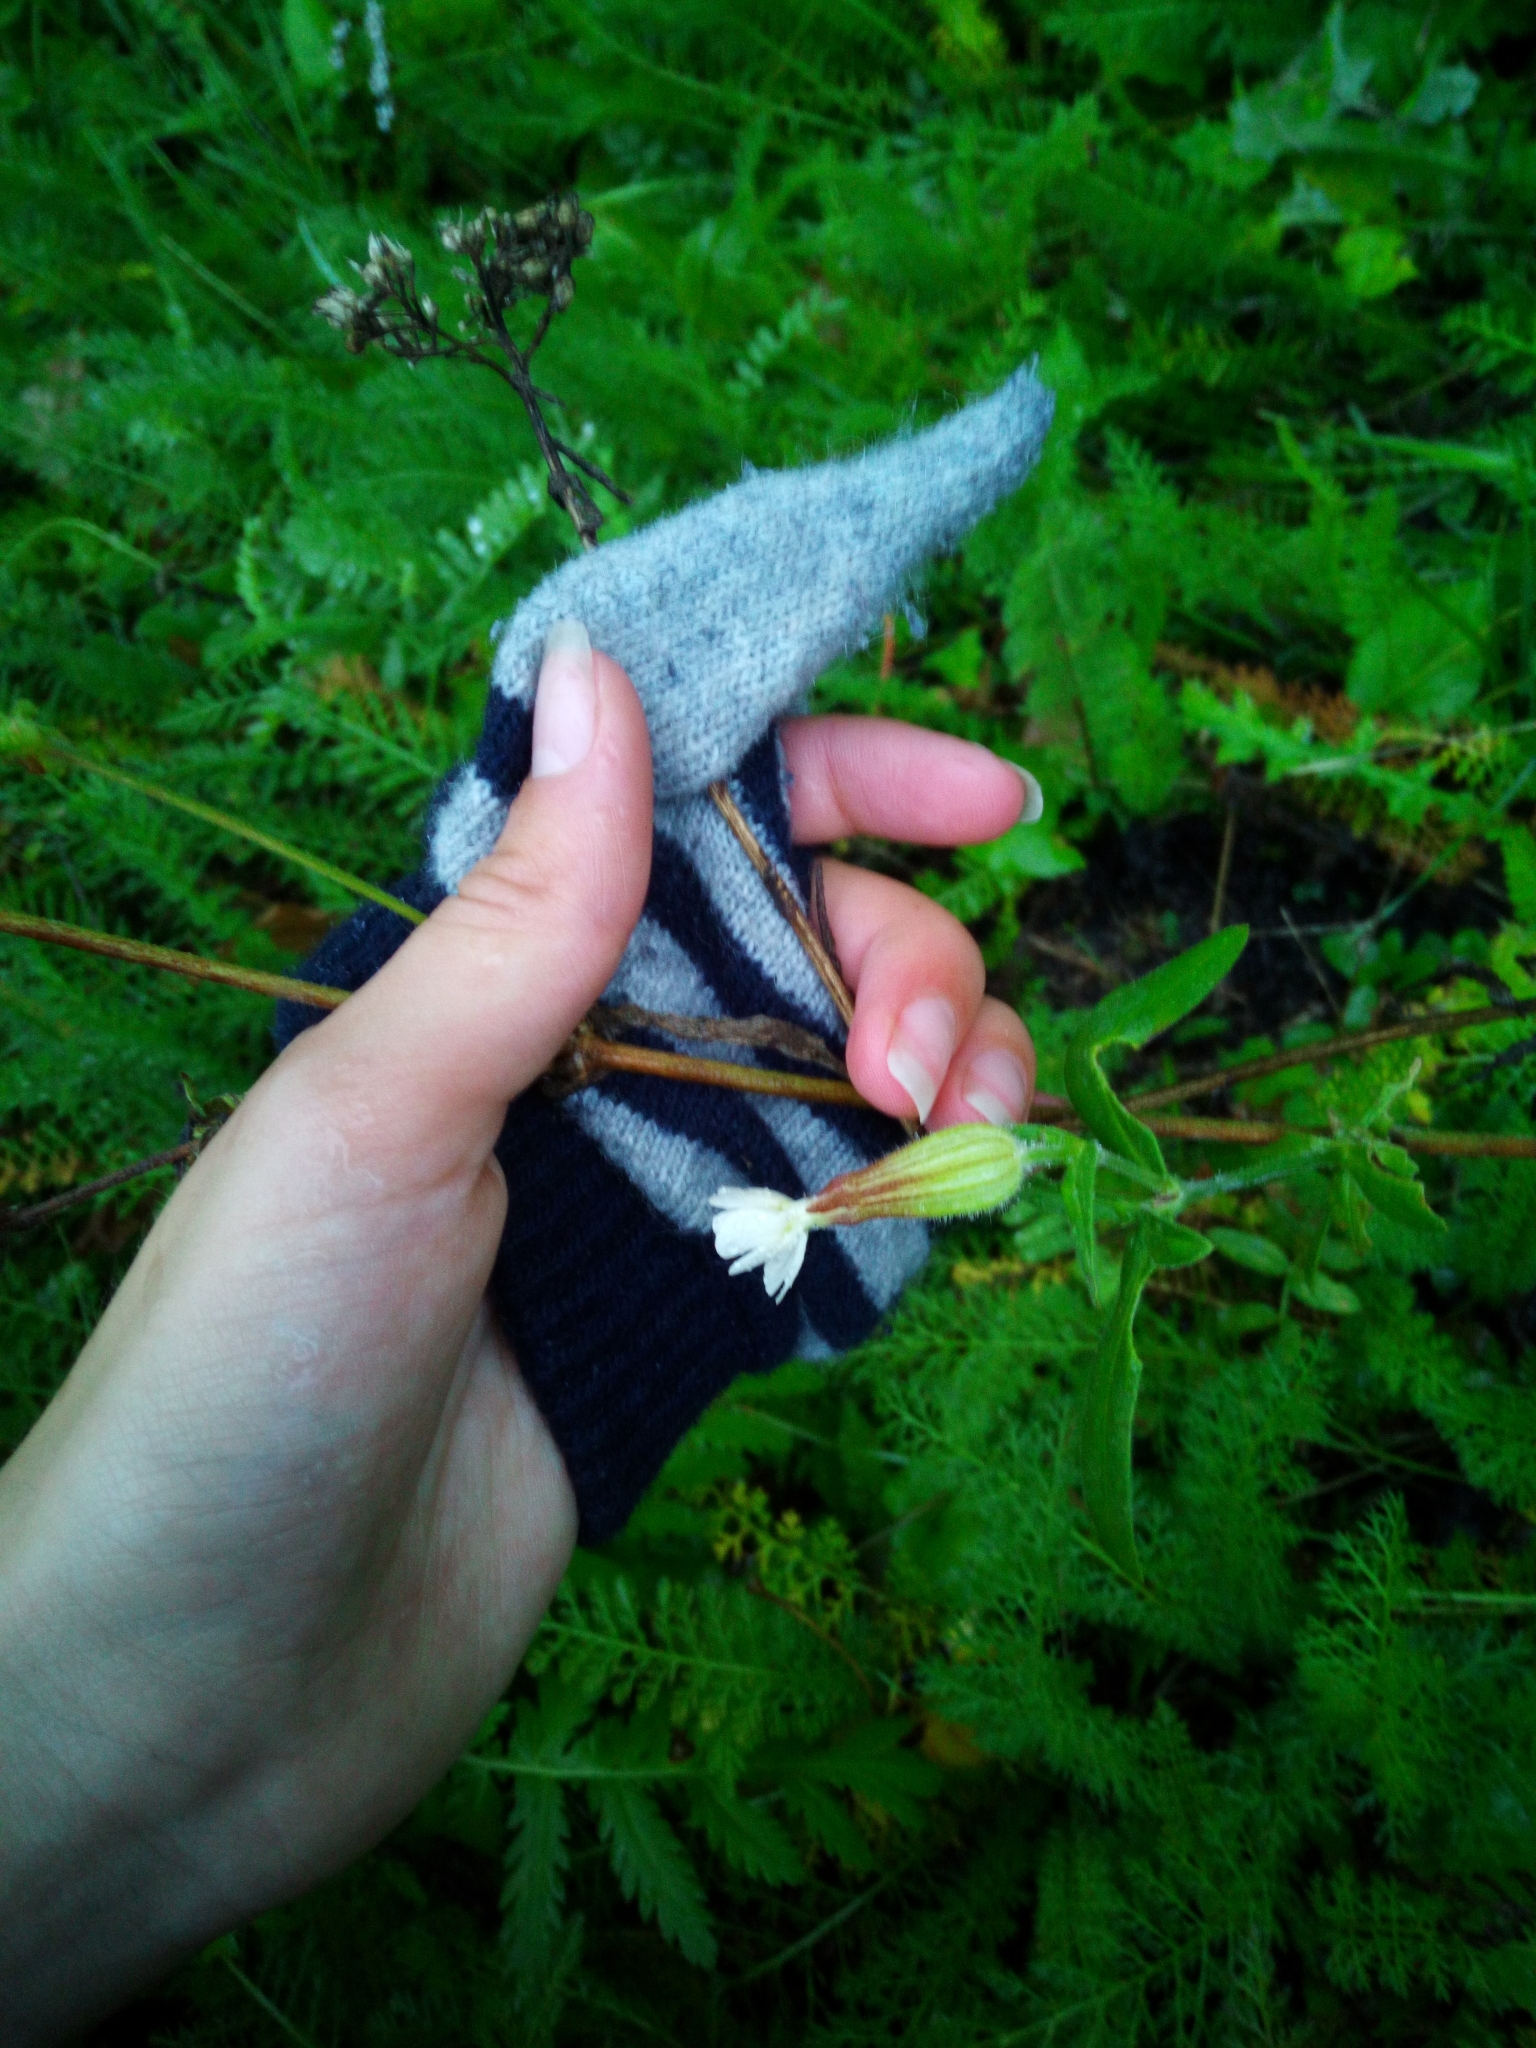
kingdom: Plantae
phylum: Tracheophyta
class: Magnoliopsida
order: Caryophyllales
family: Caryophyllaceae
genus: Silene
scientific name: Silene latifolia
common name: White campion
